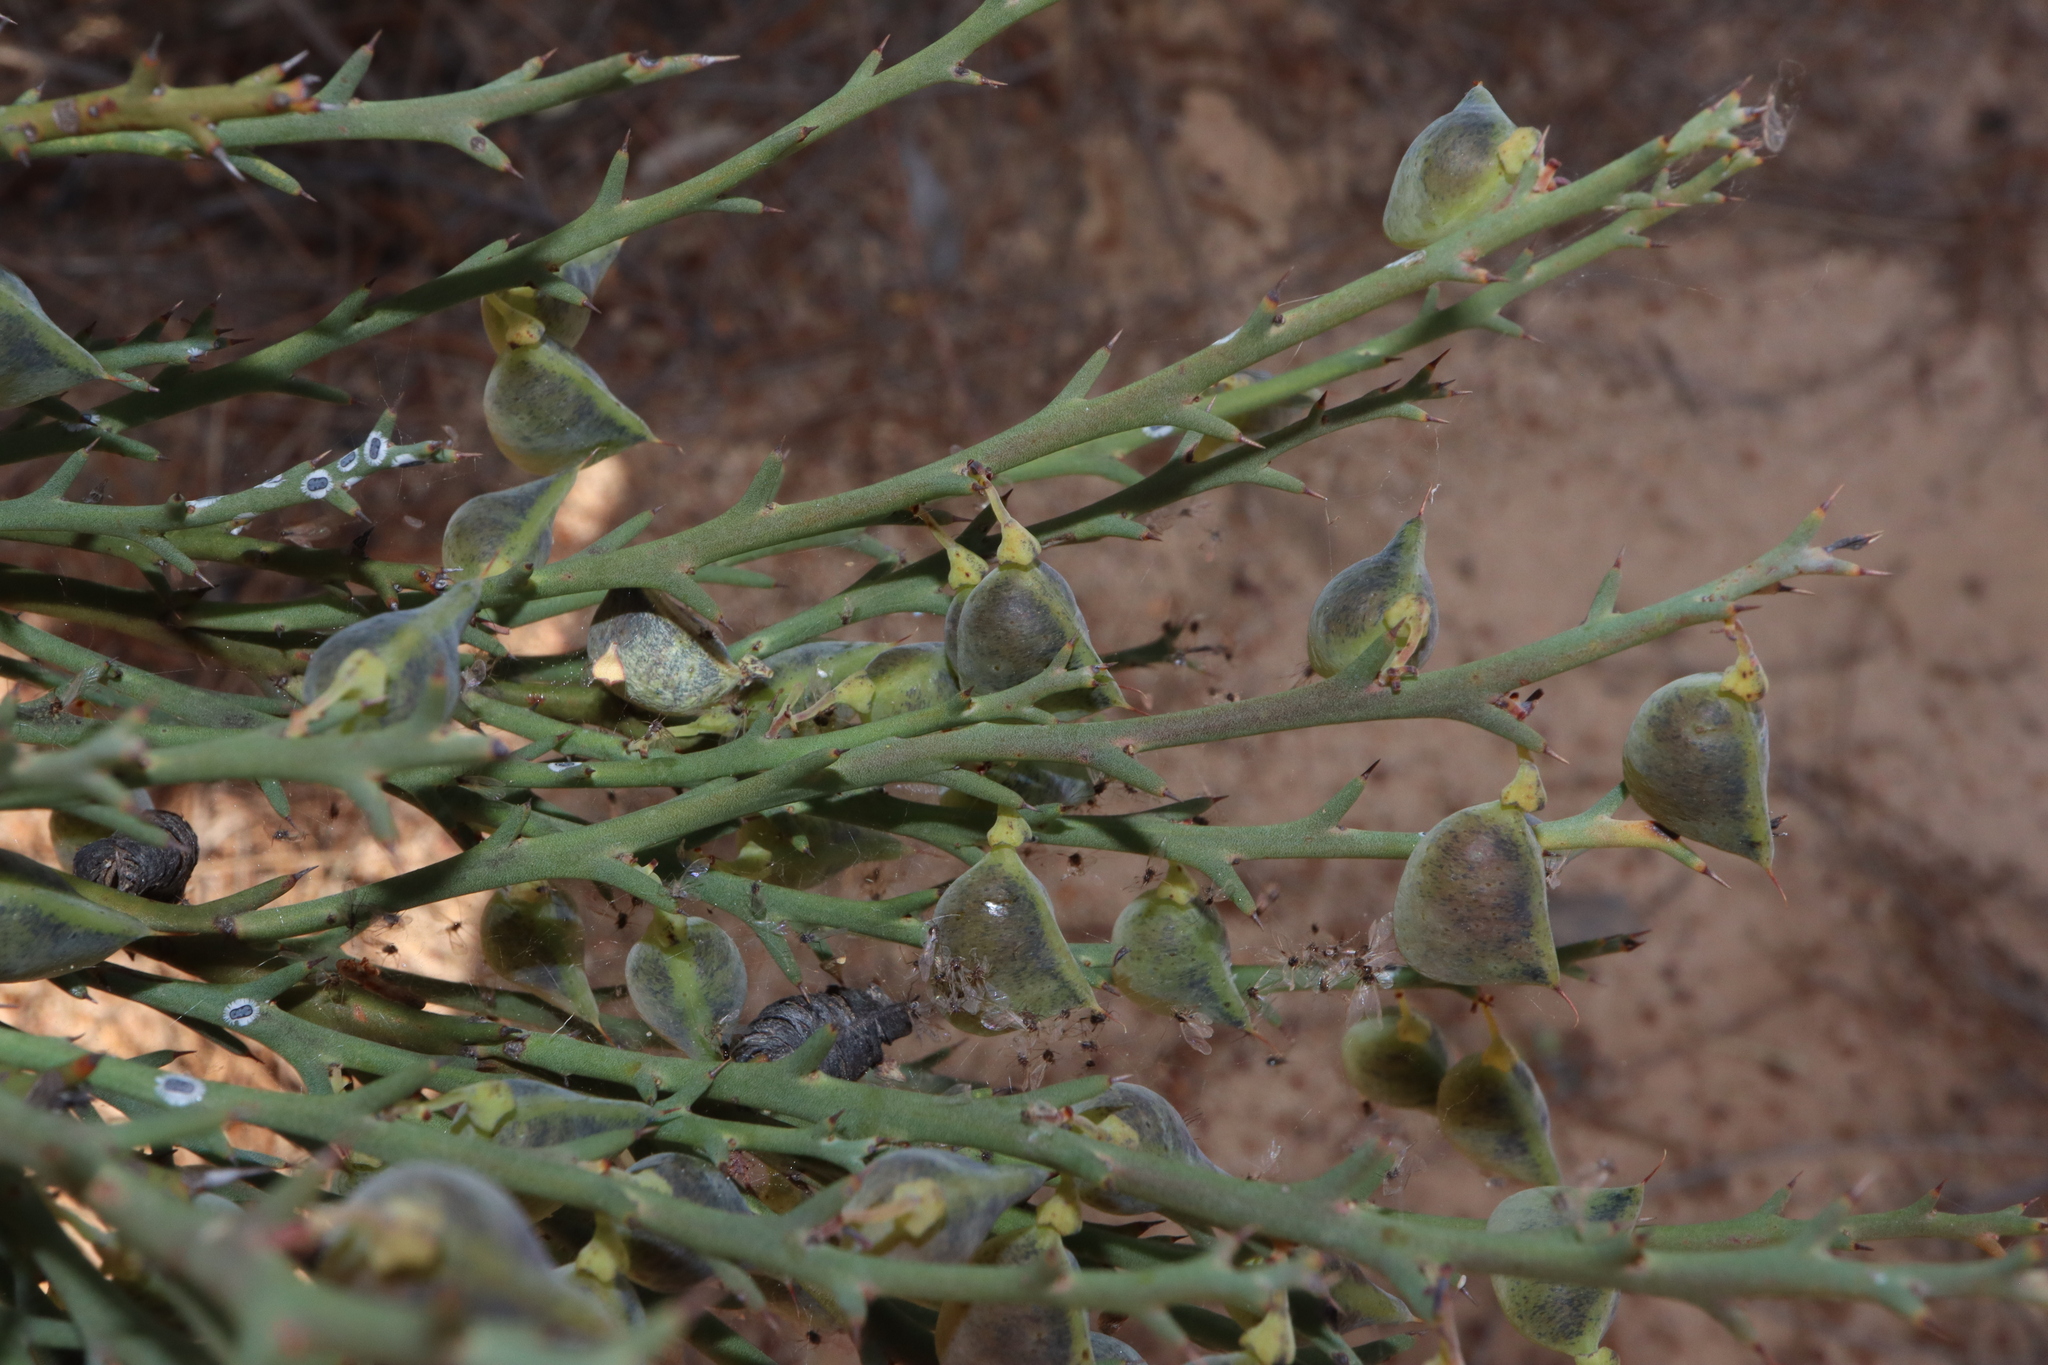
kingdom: Plantae
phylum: Tracheophyta
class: Magnoliopsida
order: Fabales
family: Fabaceae
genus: Daviesia
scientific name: Daviesia incrassata
